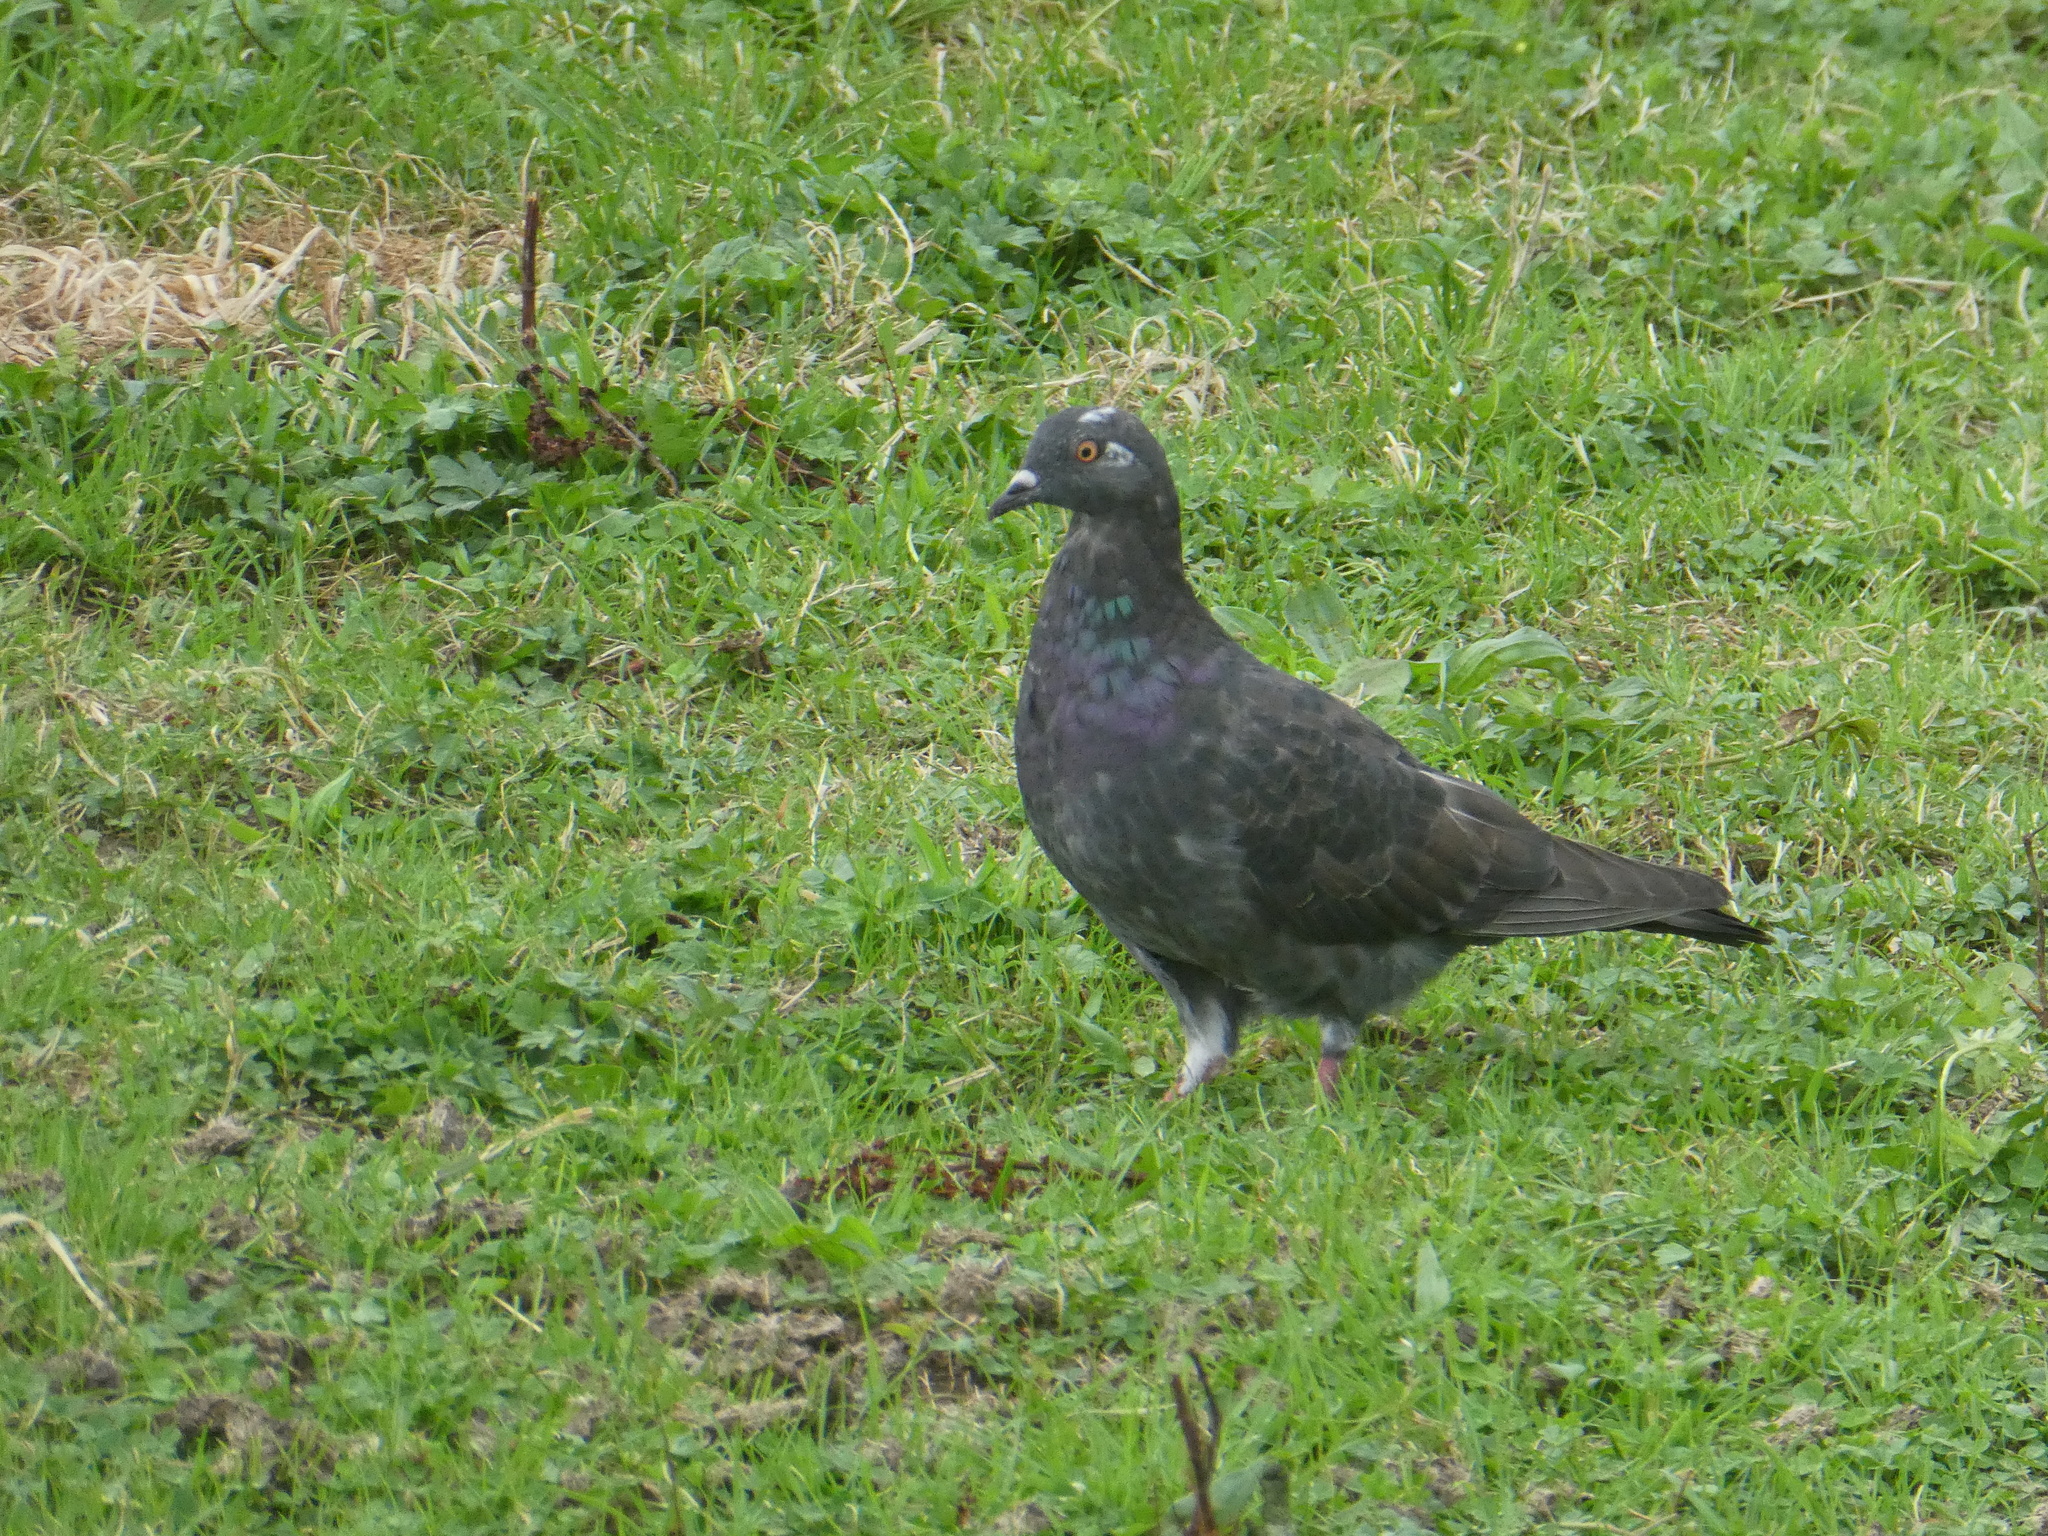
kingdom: Animalia
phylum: Chordata
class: Aves
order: Columbiformes
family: Columbidae
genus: Columba
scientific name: Columba livia
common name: Rock pigeon
